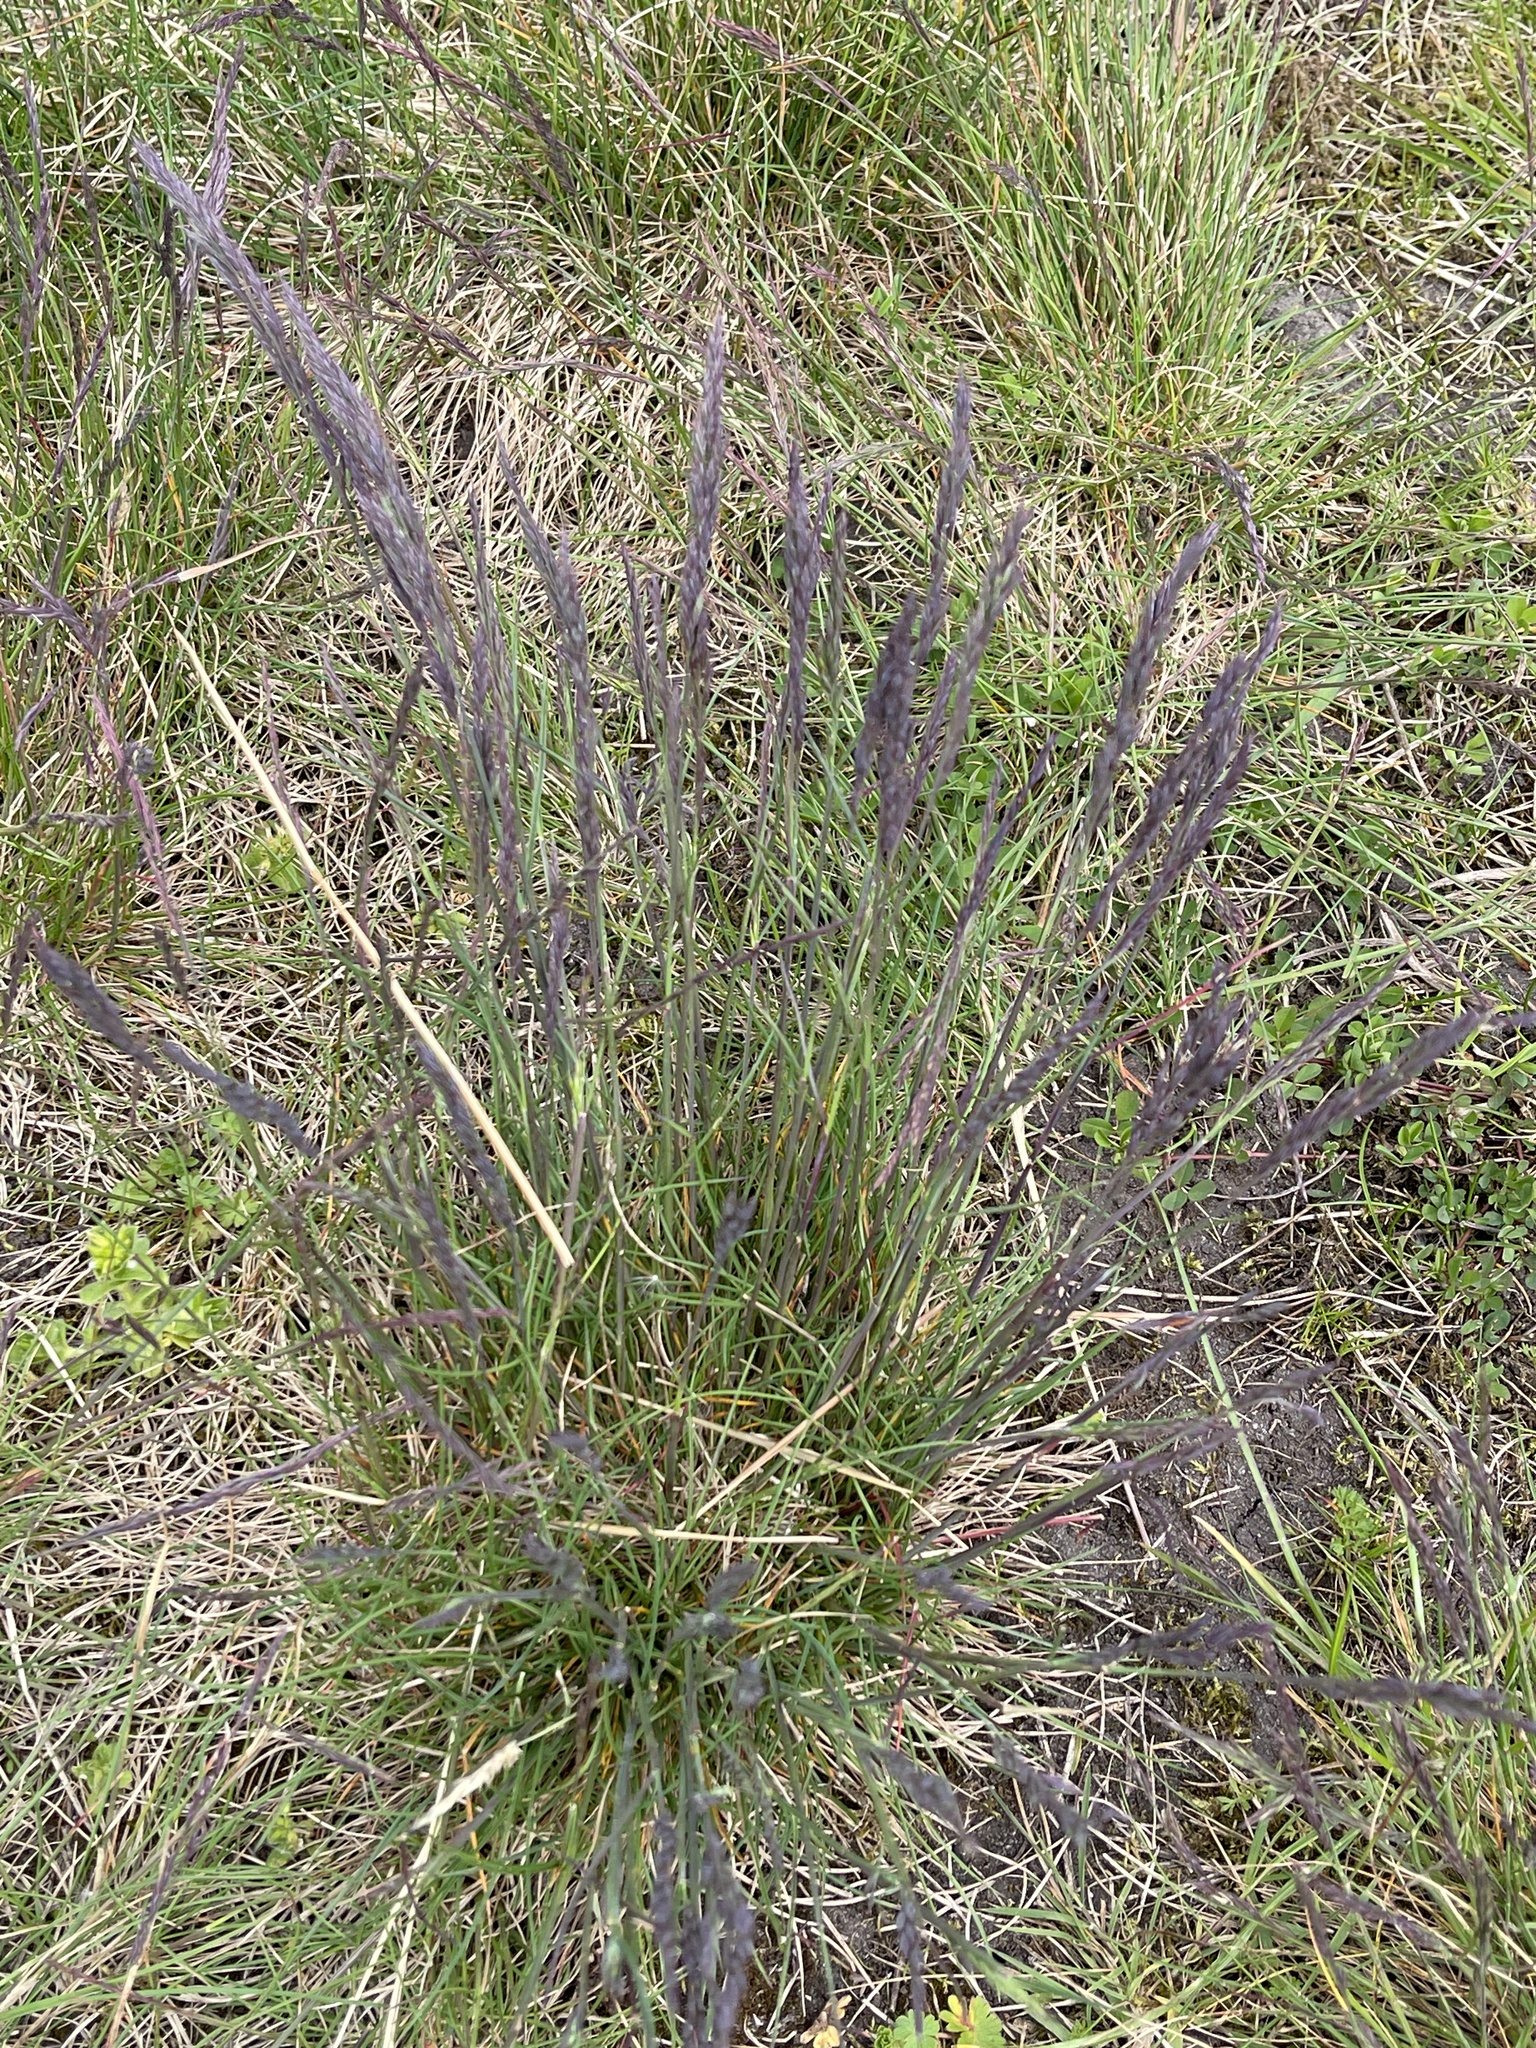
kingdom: Plantae
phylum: Tracheophyta
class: Liliopsida
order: Poales
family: Poaceae
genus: Festuca
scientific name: Festuca rubra
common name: Red fescue
